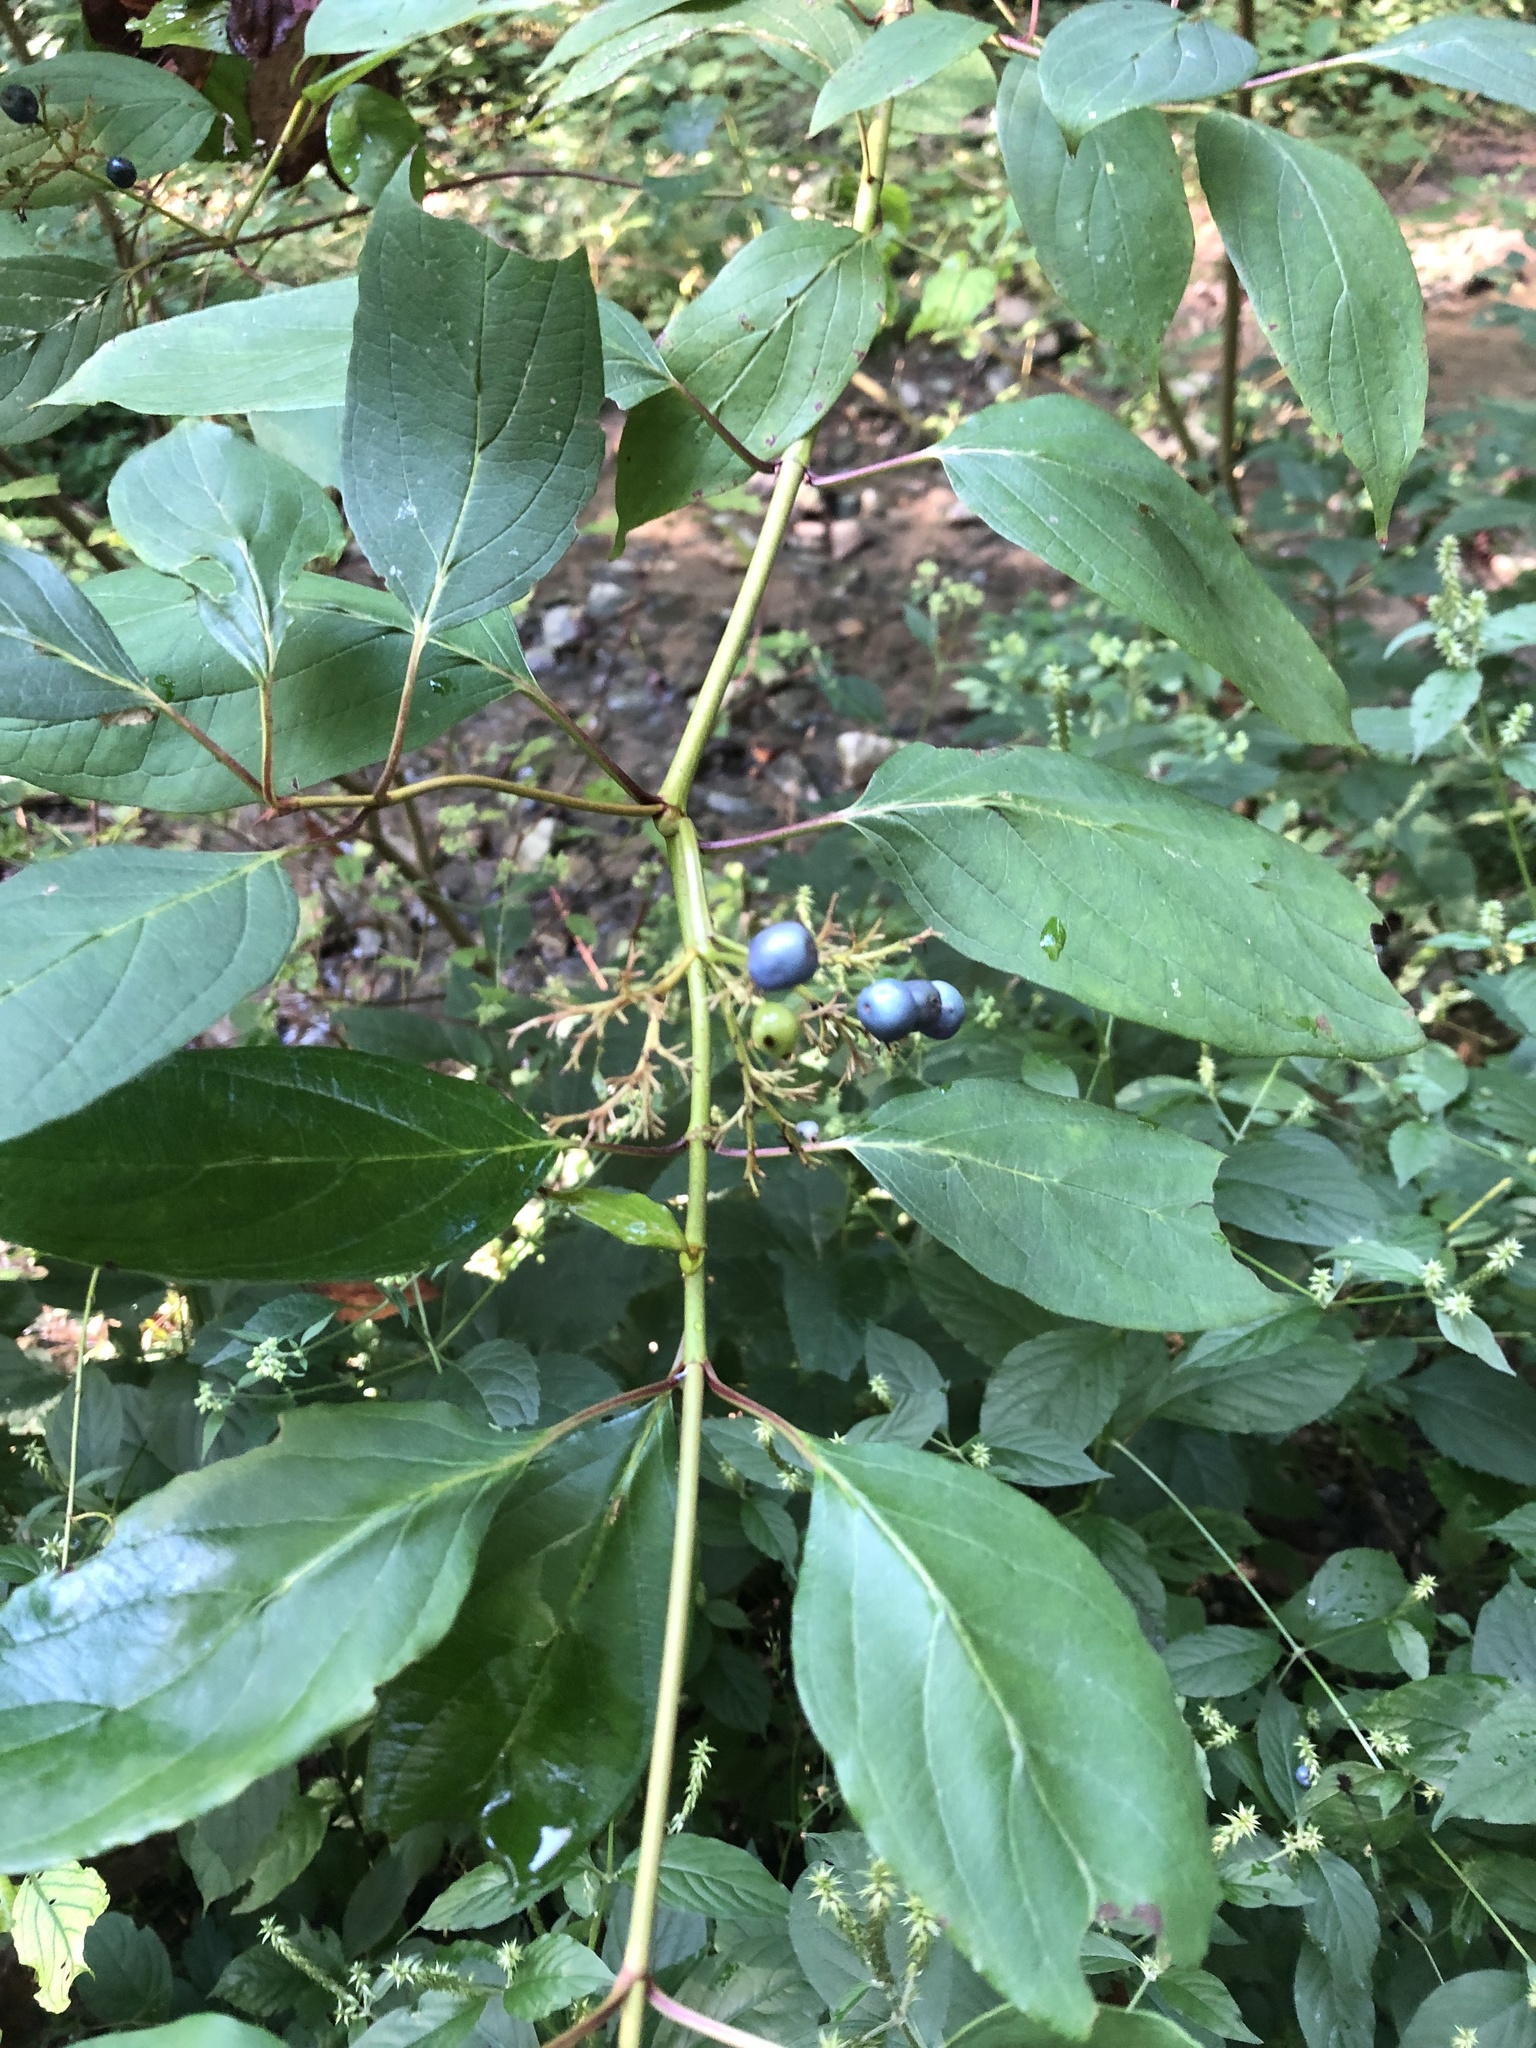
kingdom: Plantae
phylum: Tracheophyta
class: Magnoliopsida
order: Cornales
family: Cornaceae
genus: Cornus
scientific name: Cornus amomum
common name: Silky dogwood
